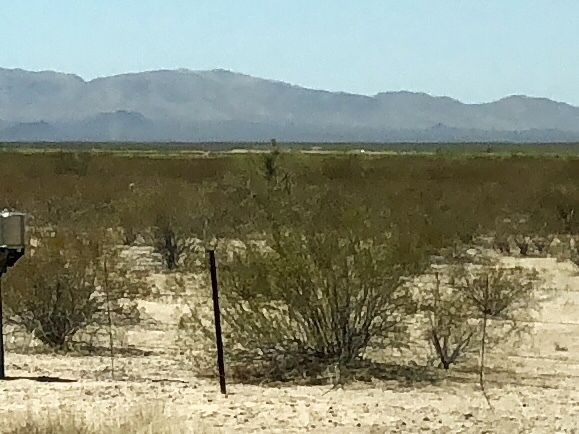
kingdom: Plantae
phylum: Tracheophyta
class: Magnoliopsida
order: Zygophyllales
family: Zygophyllaceae
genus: Larrea
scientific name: Larrea tridentata
